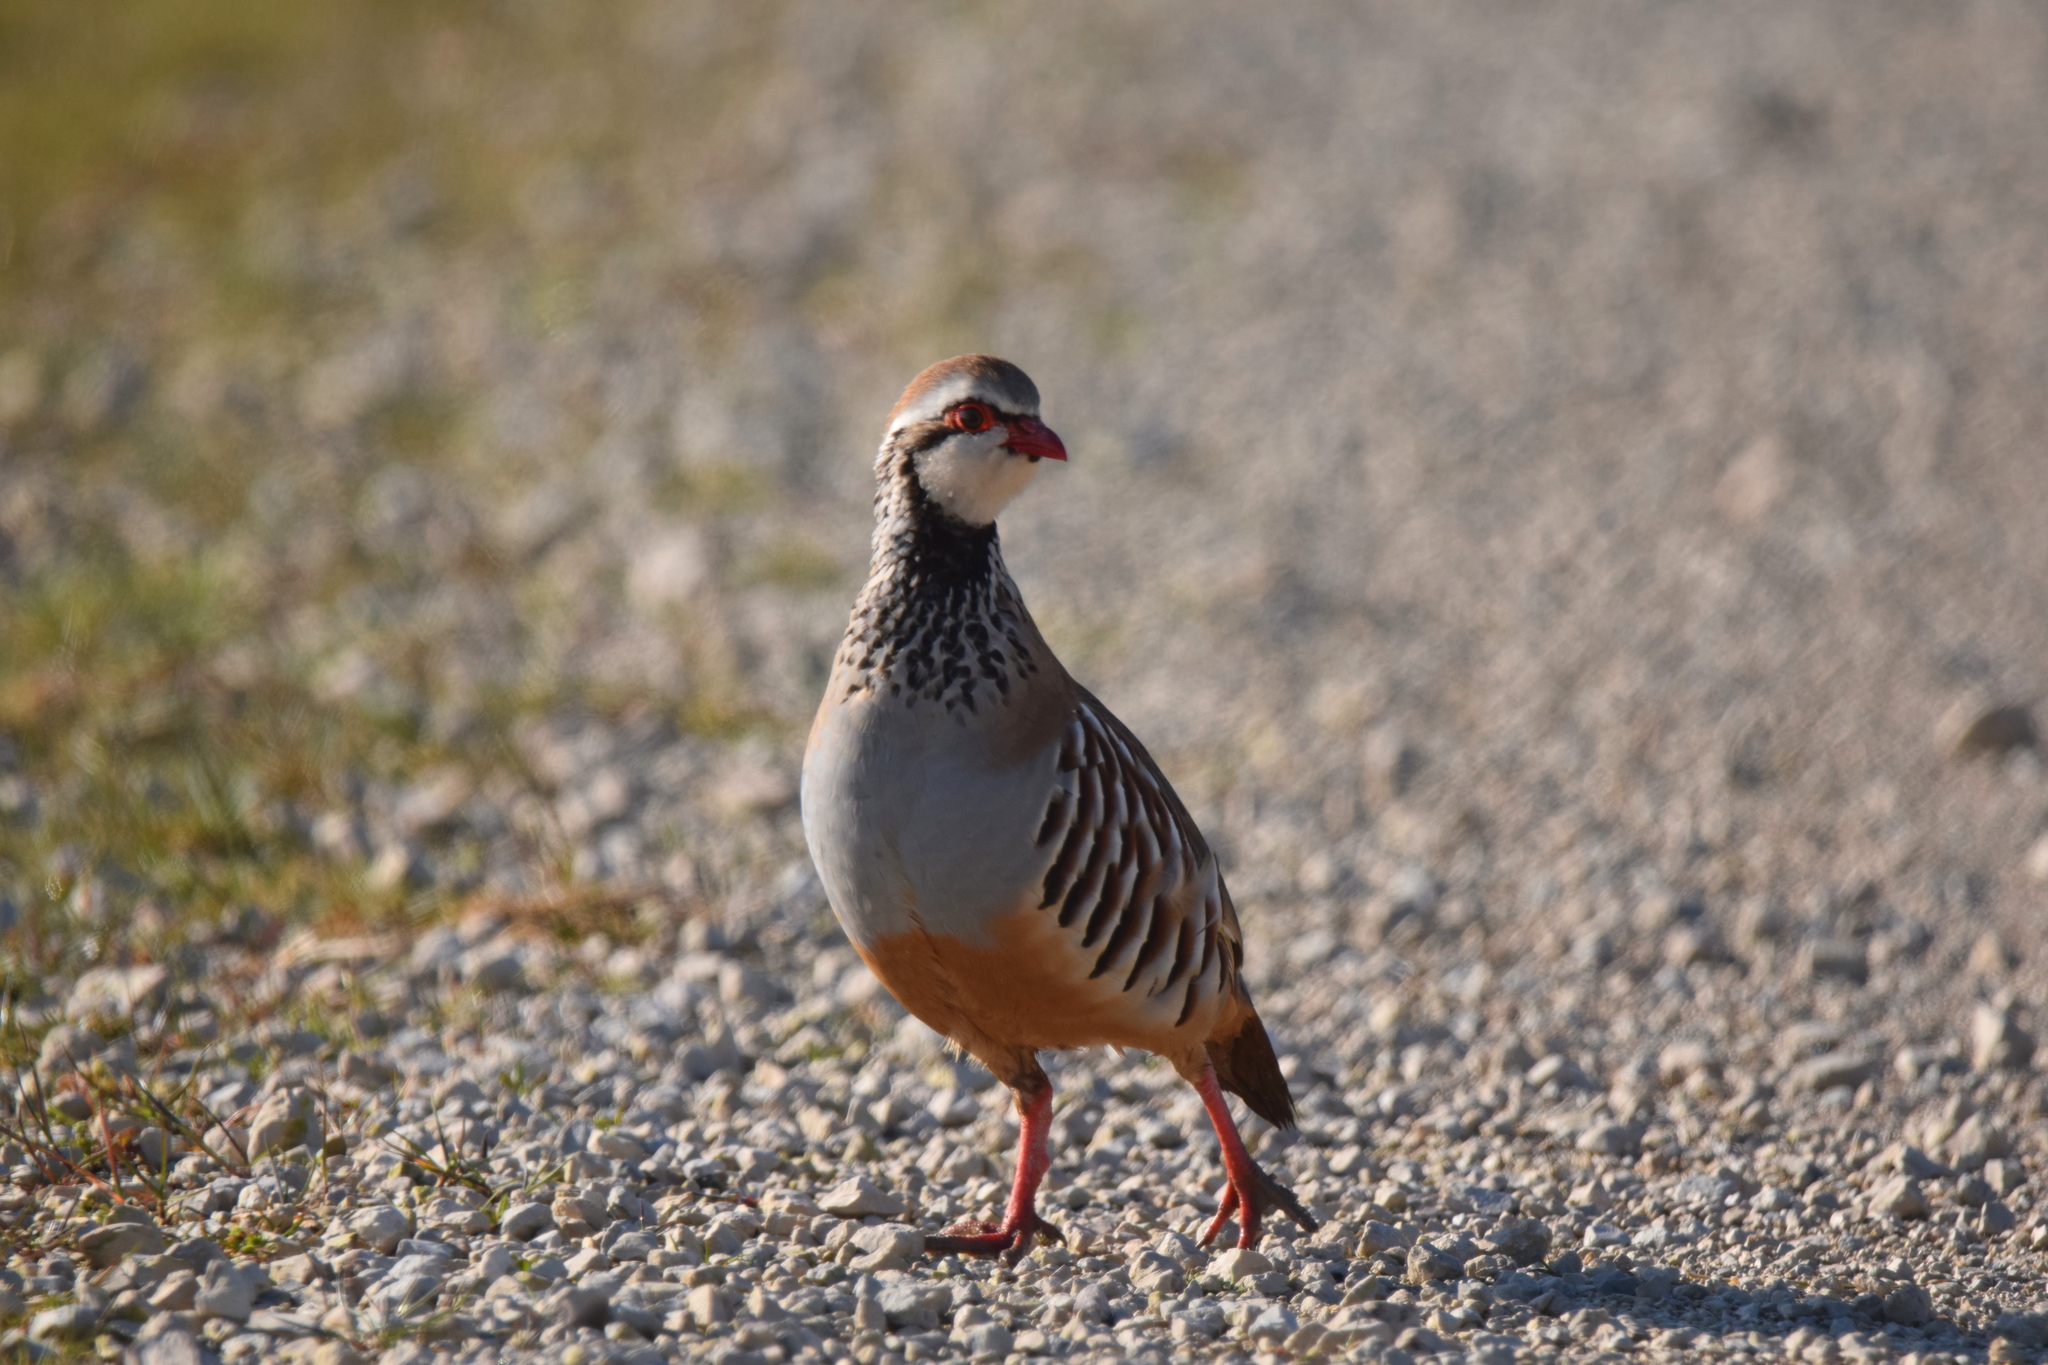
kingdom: Animalia
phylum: Chordata
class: Aves
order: Galliformes
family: Phasianidae
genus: Alectoris
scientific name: Alectoris rufa
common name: Red-legged partridge
